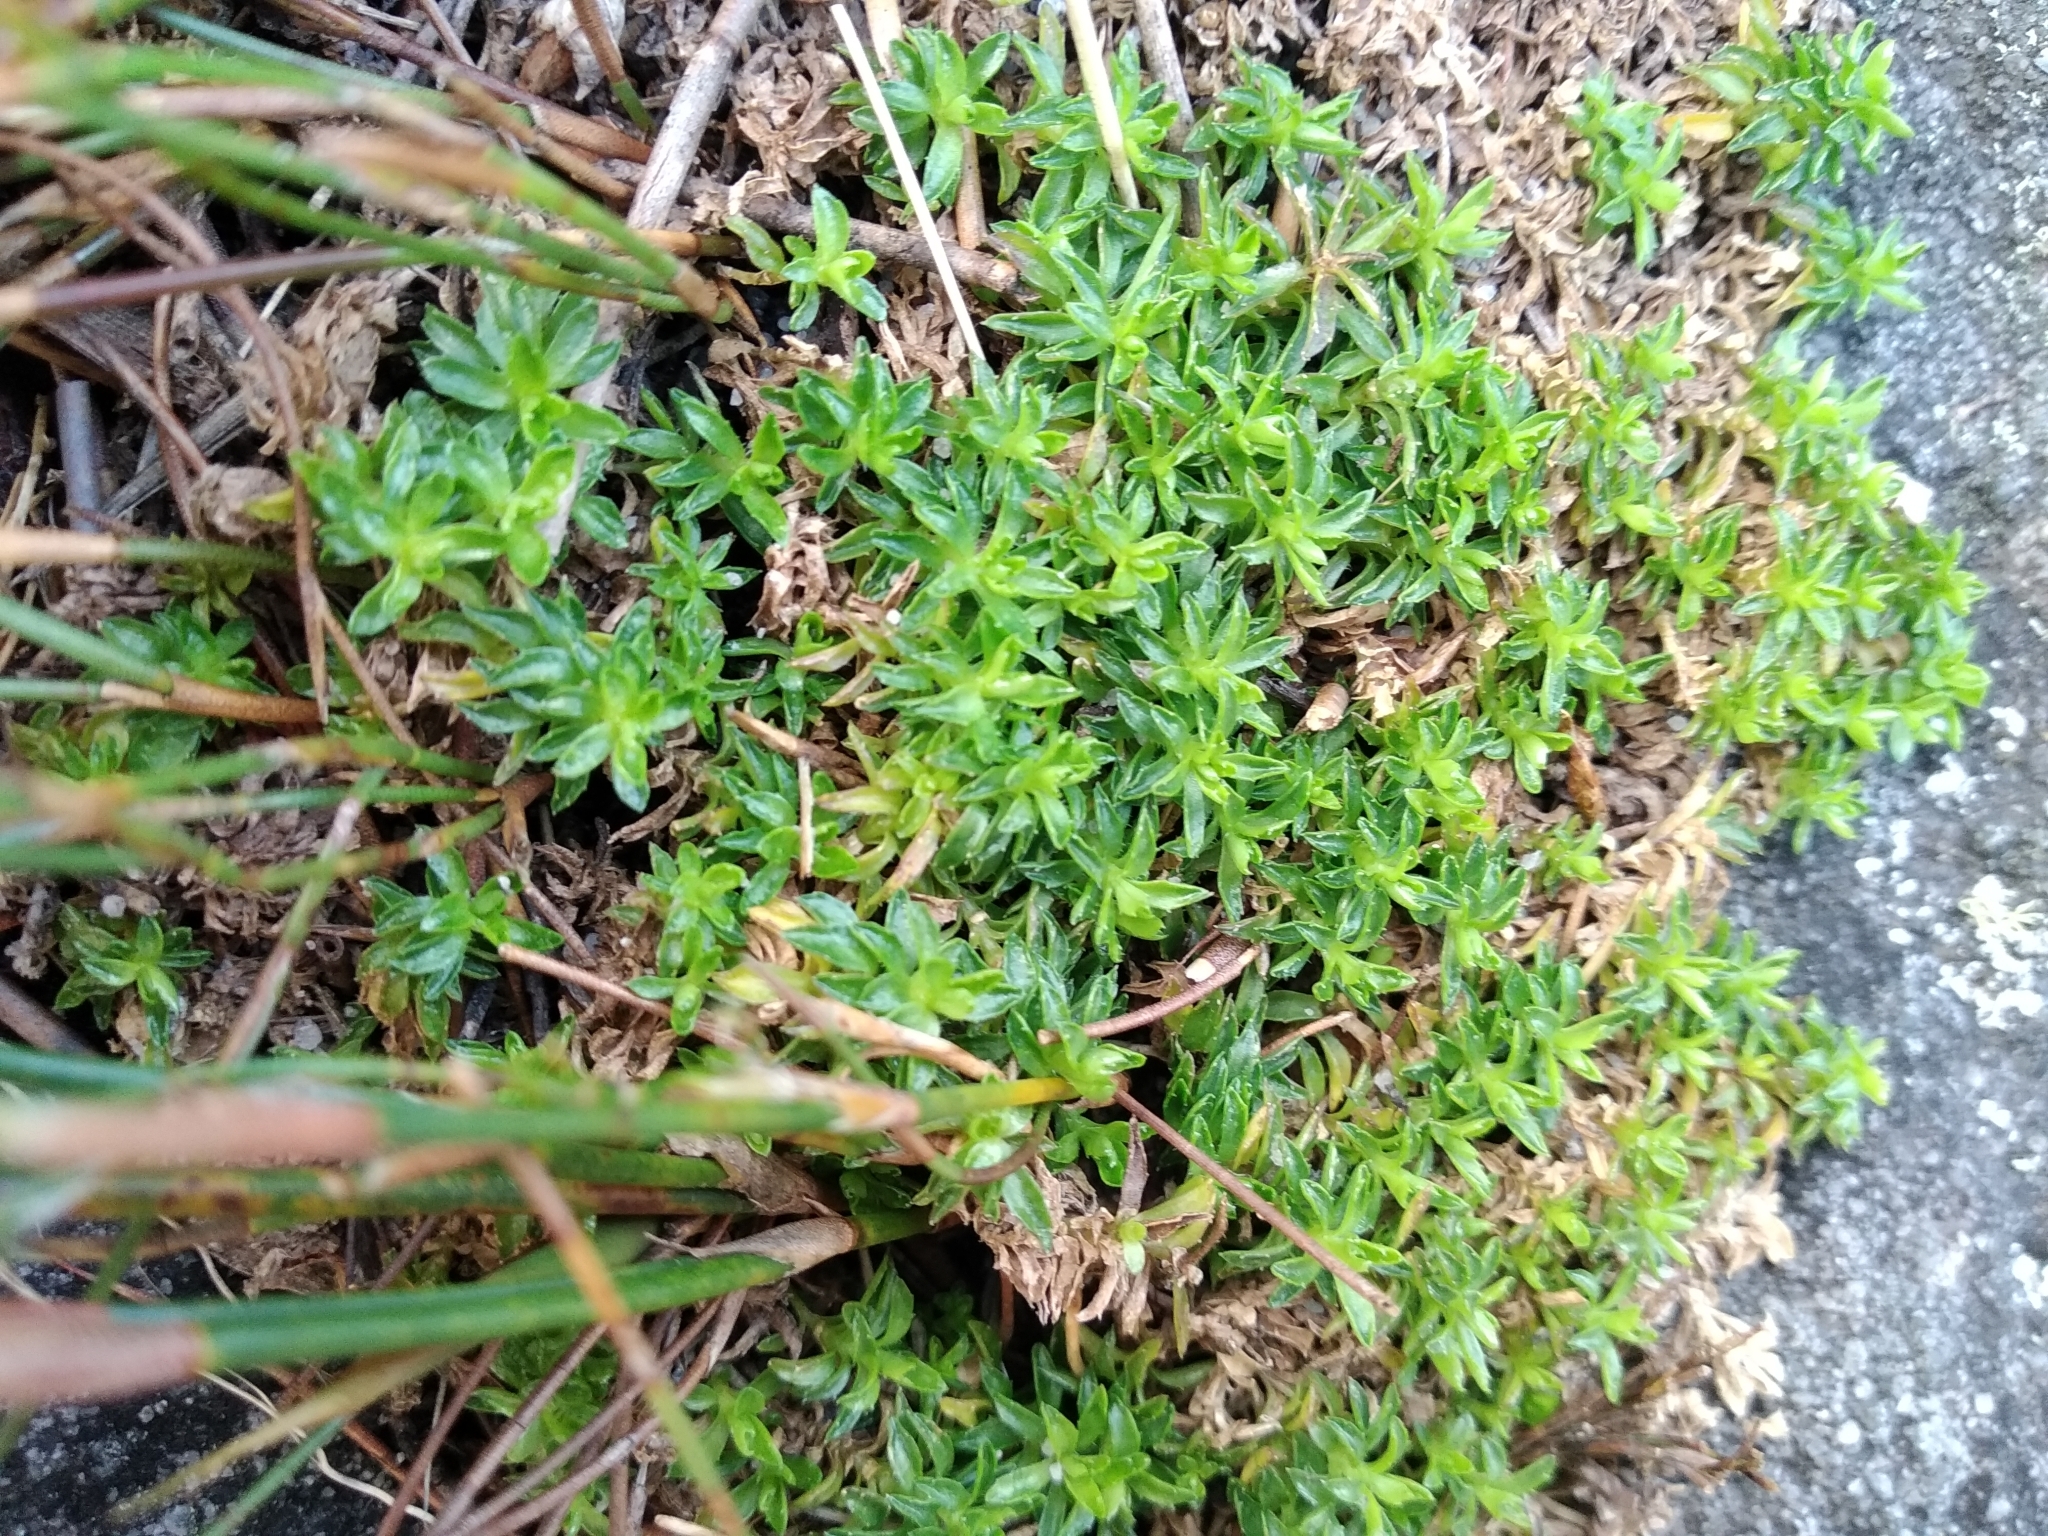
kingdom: Plantae
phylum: Tracheophyta
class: Magnoliopsida
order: Asterales
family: Campanulaceae
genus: Roella
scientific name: Roella muscosa
